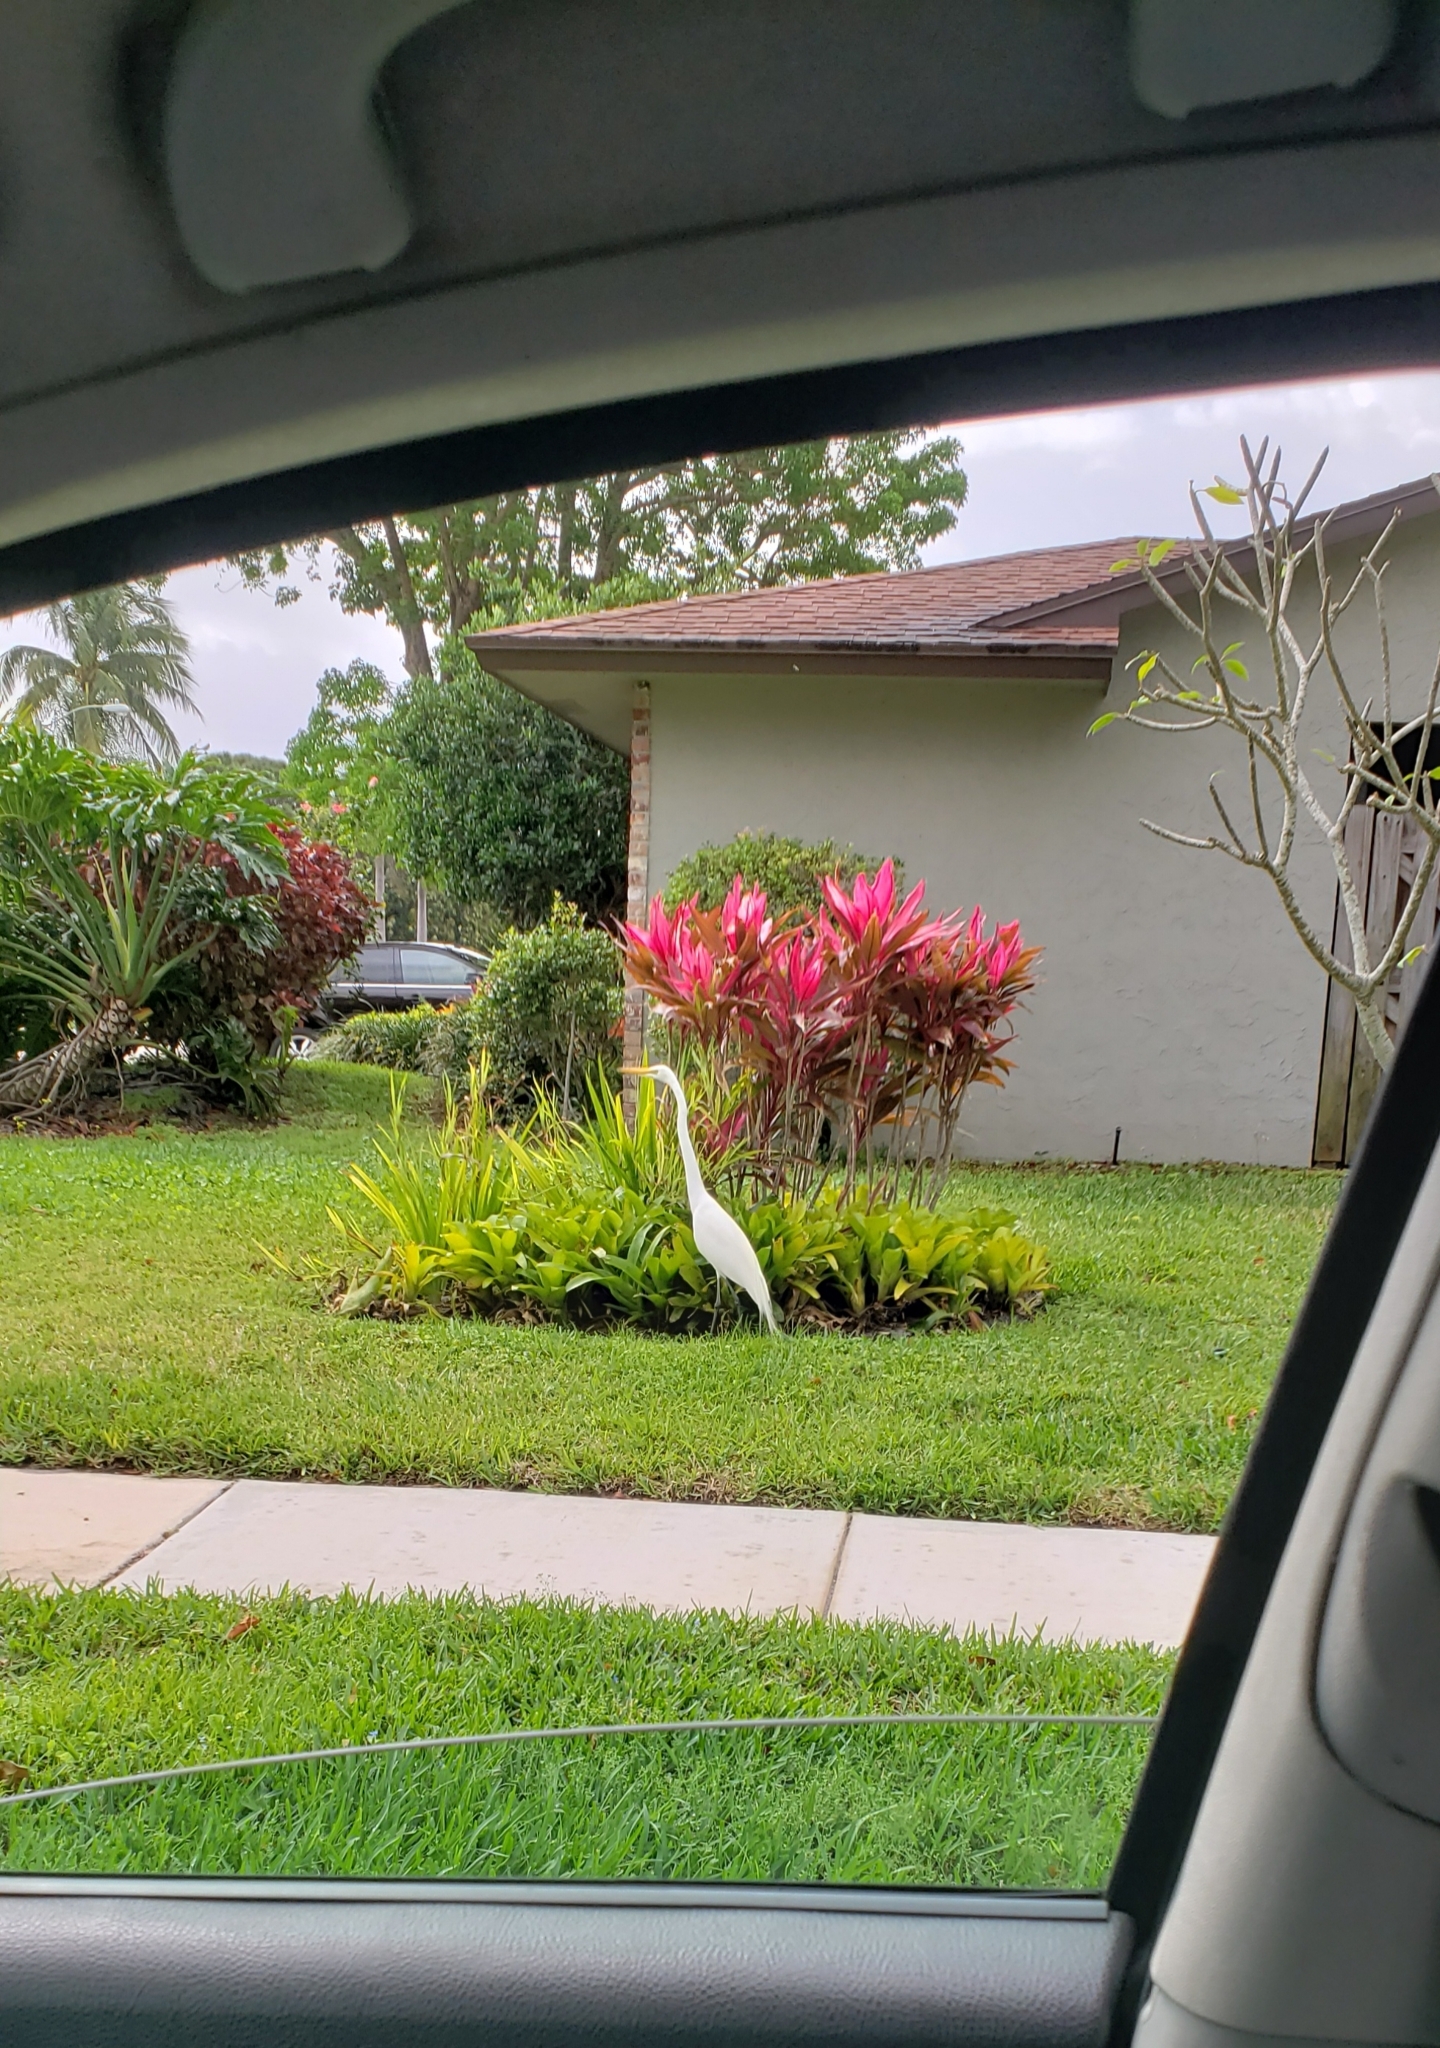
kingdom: Animalia
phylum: Chordata
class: Aves
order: Pelecaniformes
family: Ardeidae
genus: Ardea
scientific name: Ardea alba
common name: Great egret
